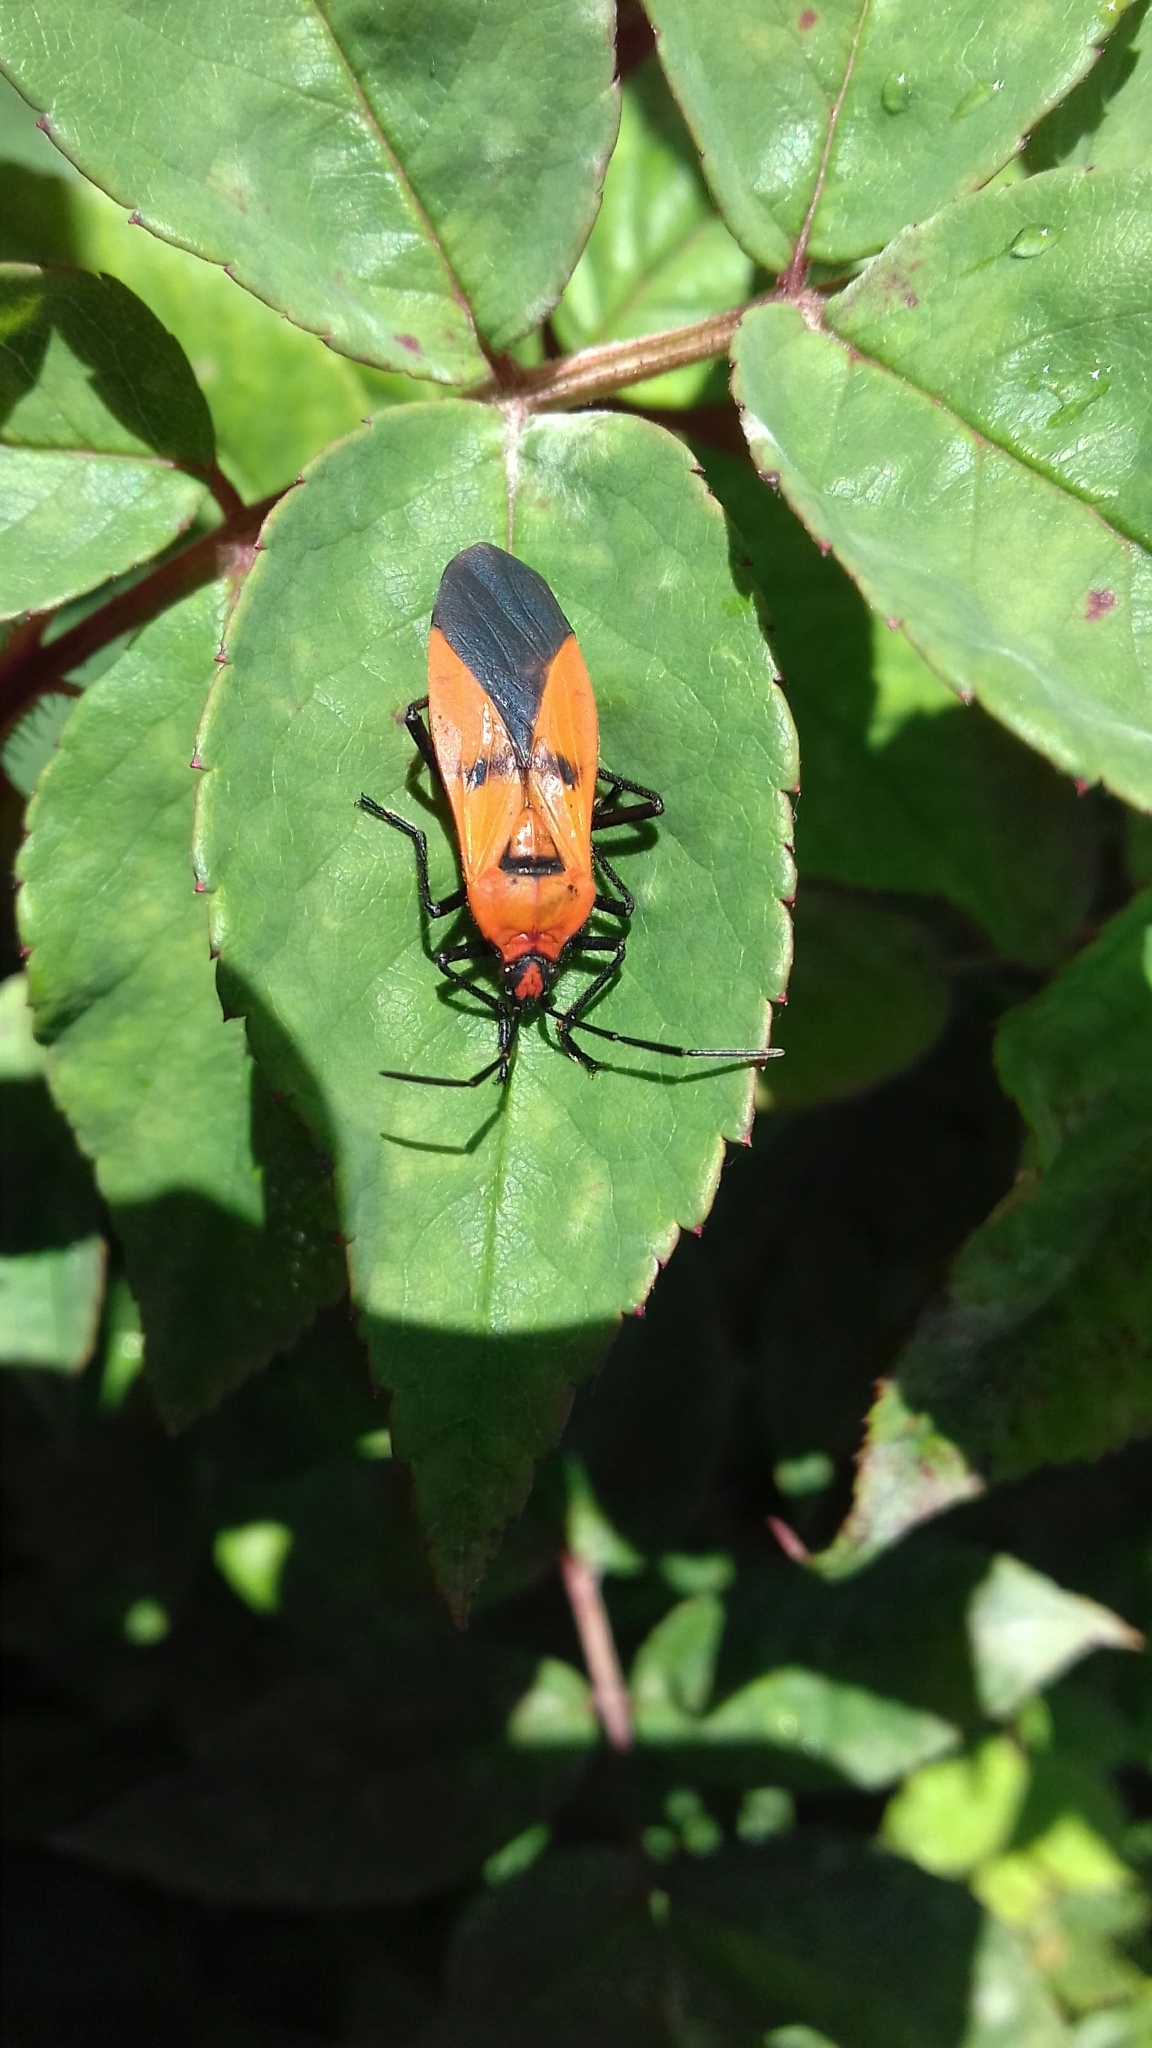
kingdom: Animalia
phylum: Arthropoda
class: Insecta
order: Hemiptera
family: Lygaeidae
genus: Oncopeltus
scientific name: Oncopeltus varicolor
